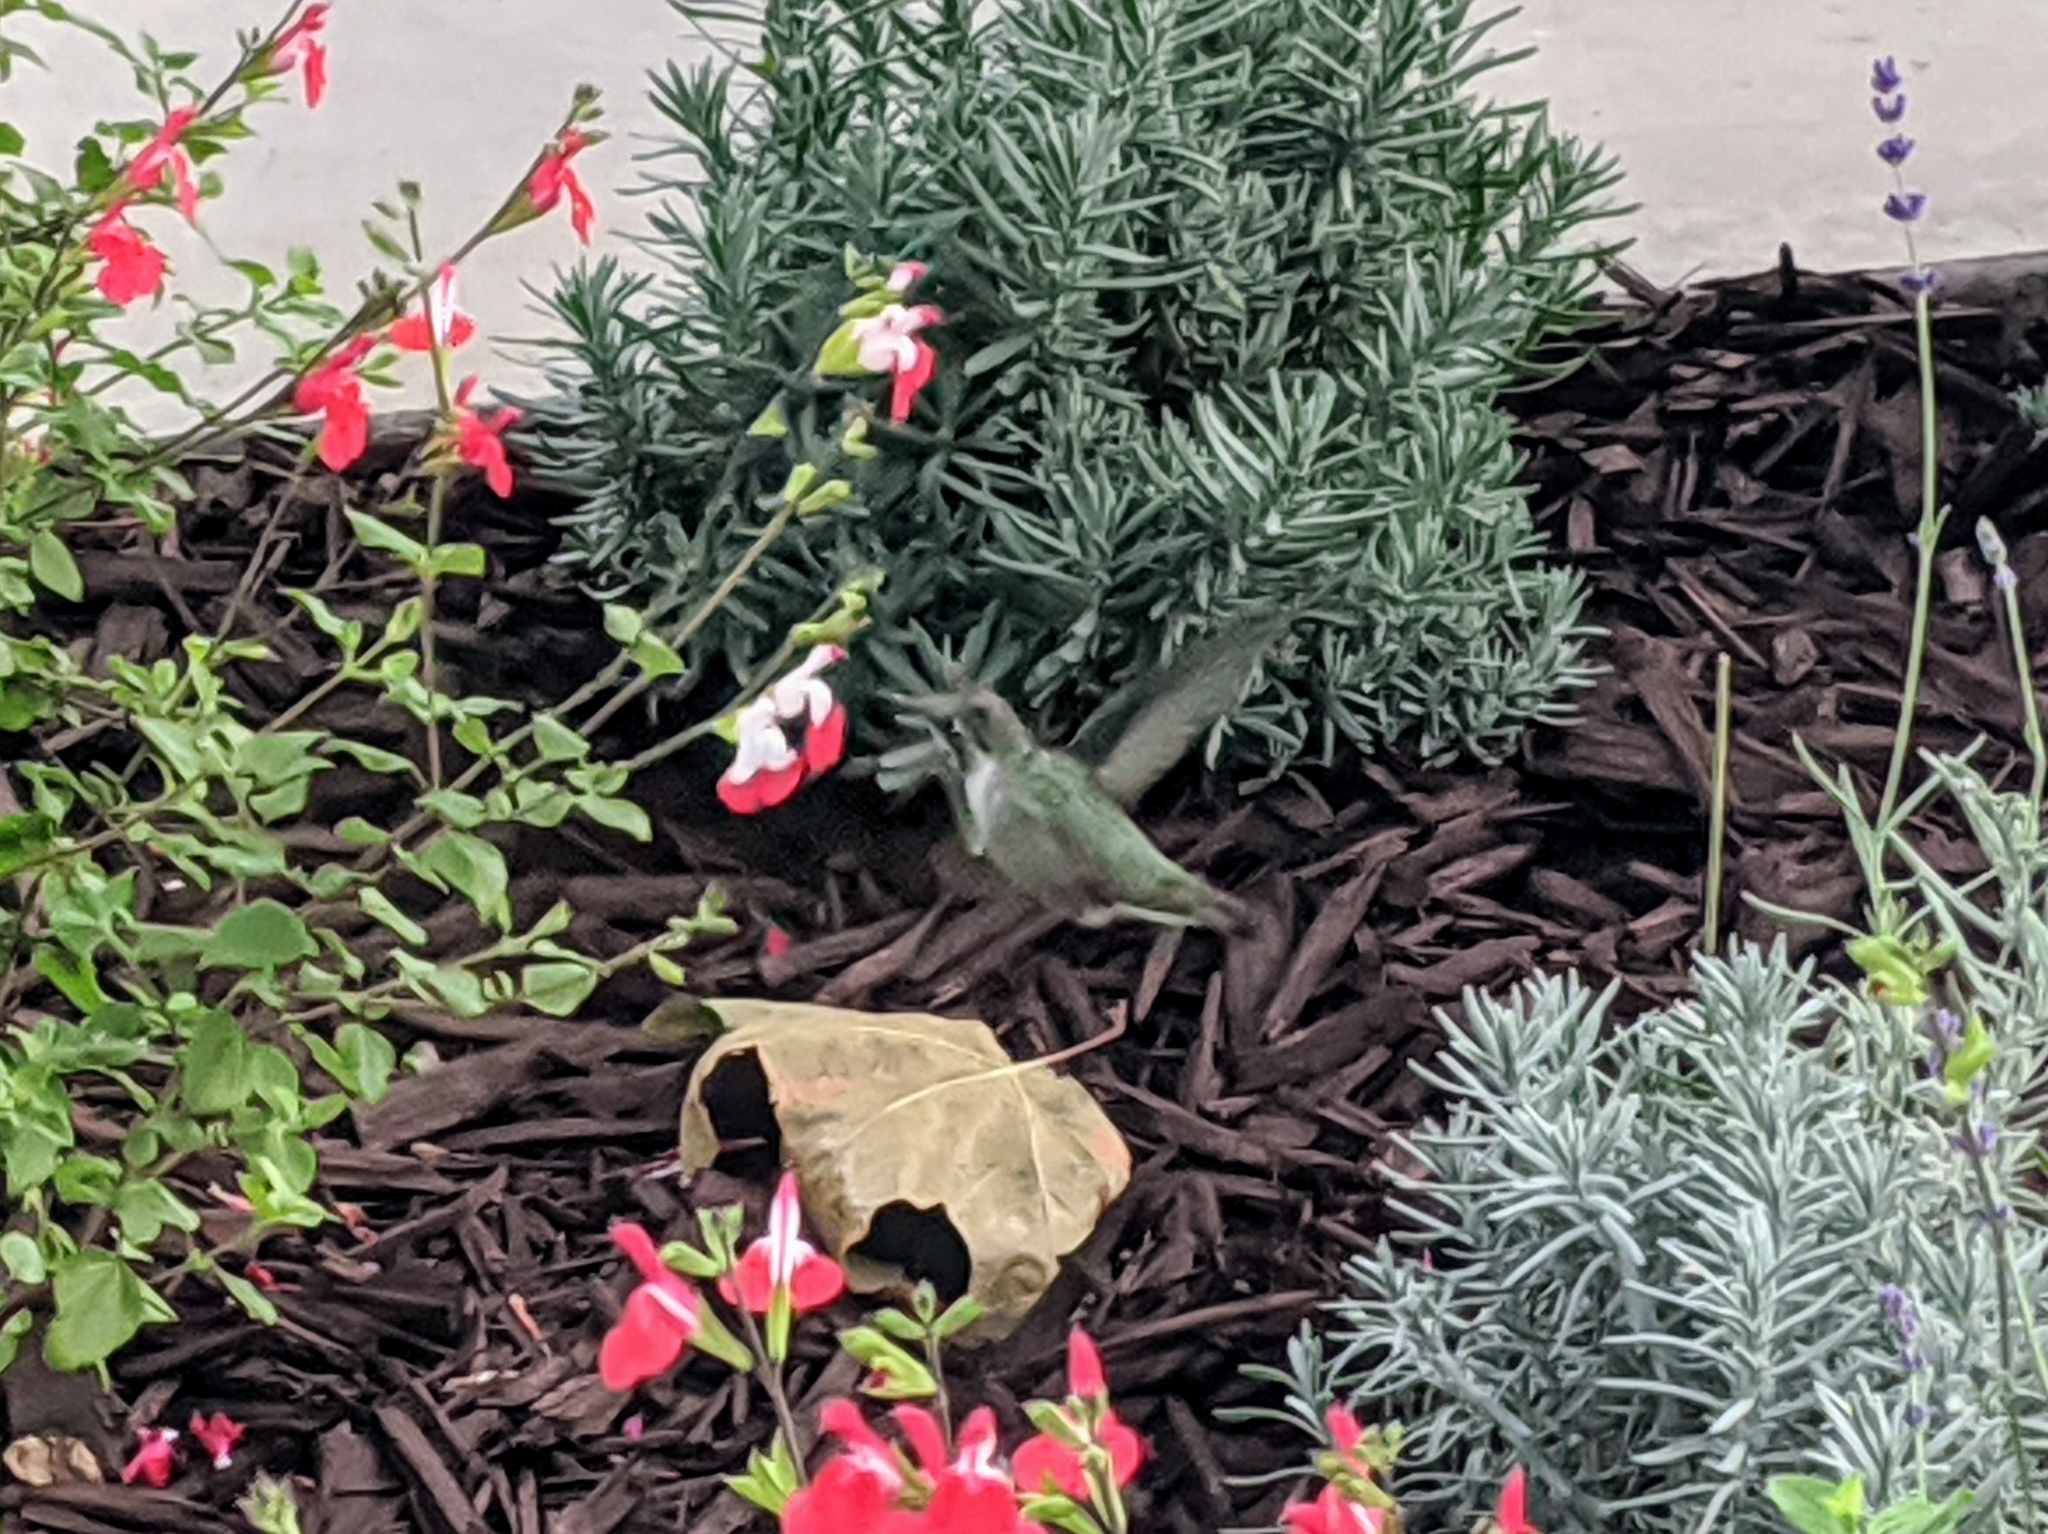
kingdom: Animalia
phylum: Chordata
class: Aves
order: Apodiformes
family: Trochilidae
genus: Calypte
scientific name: Calypte anna
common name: Anna's hummingbird
